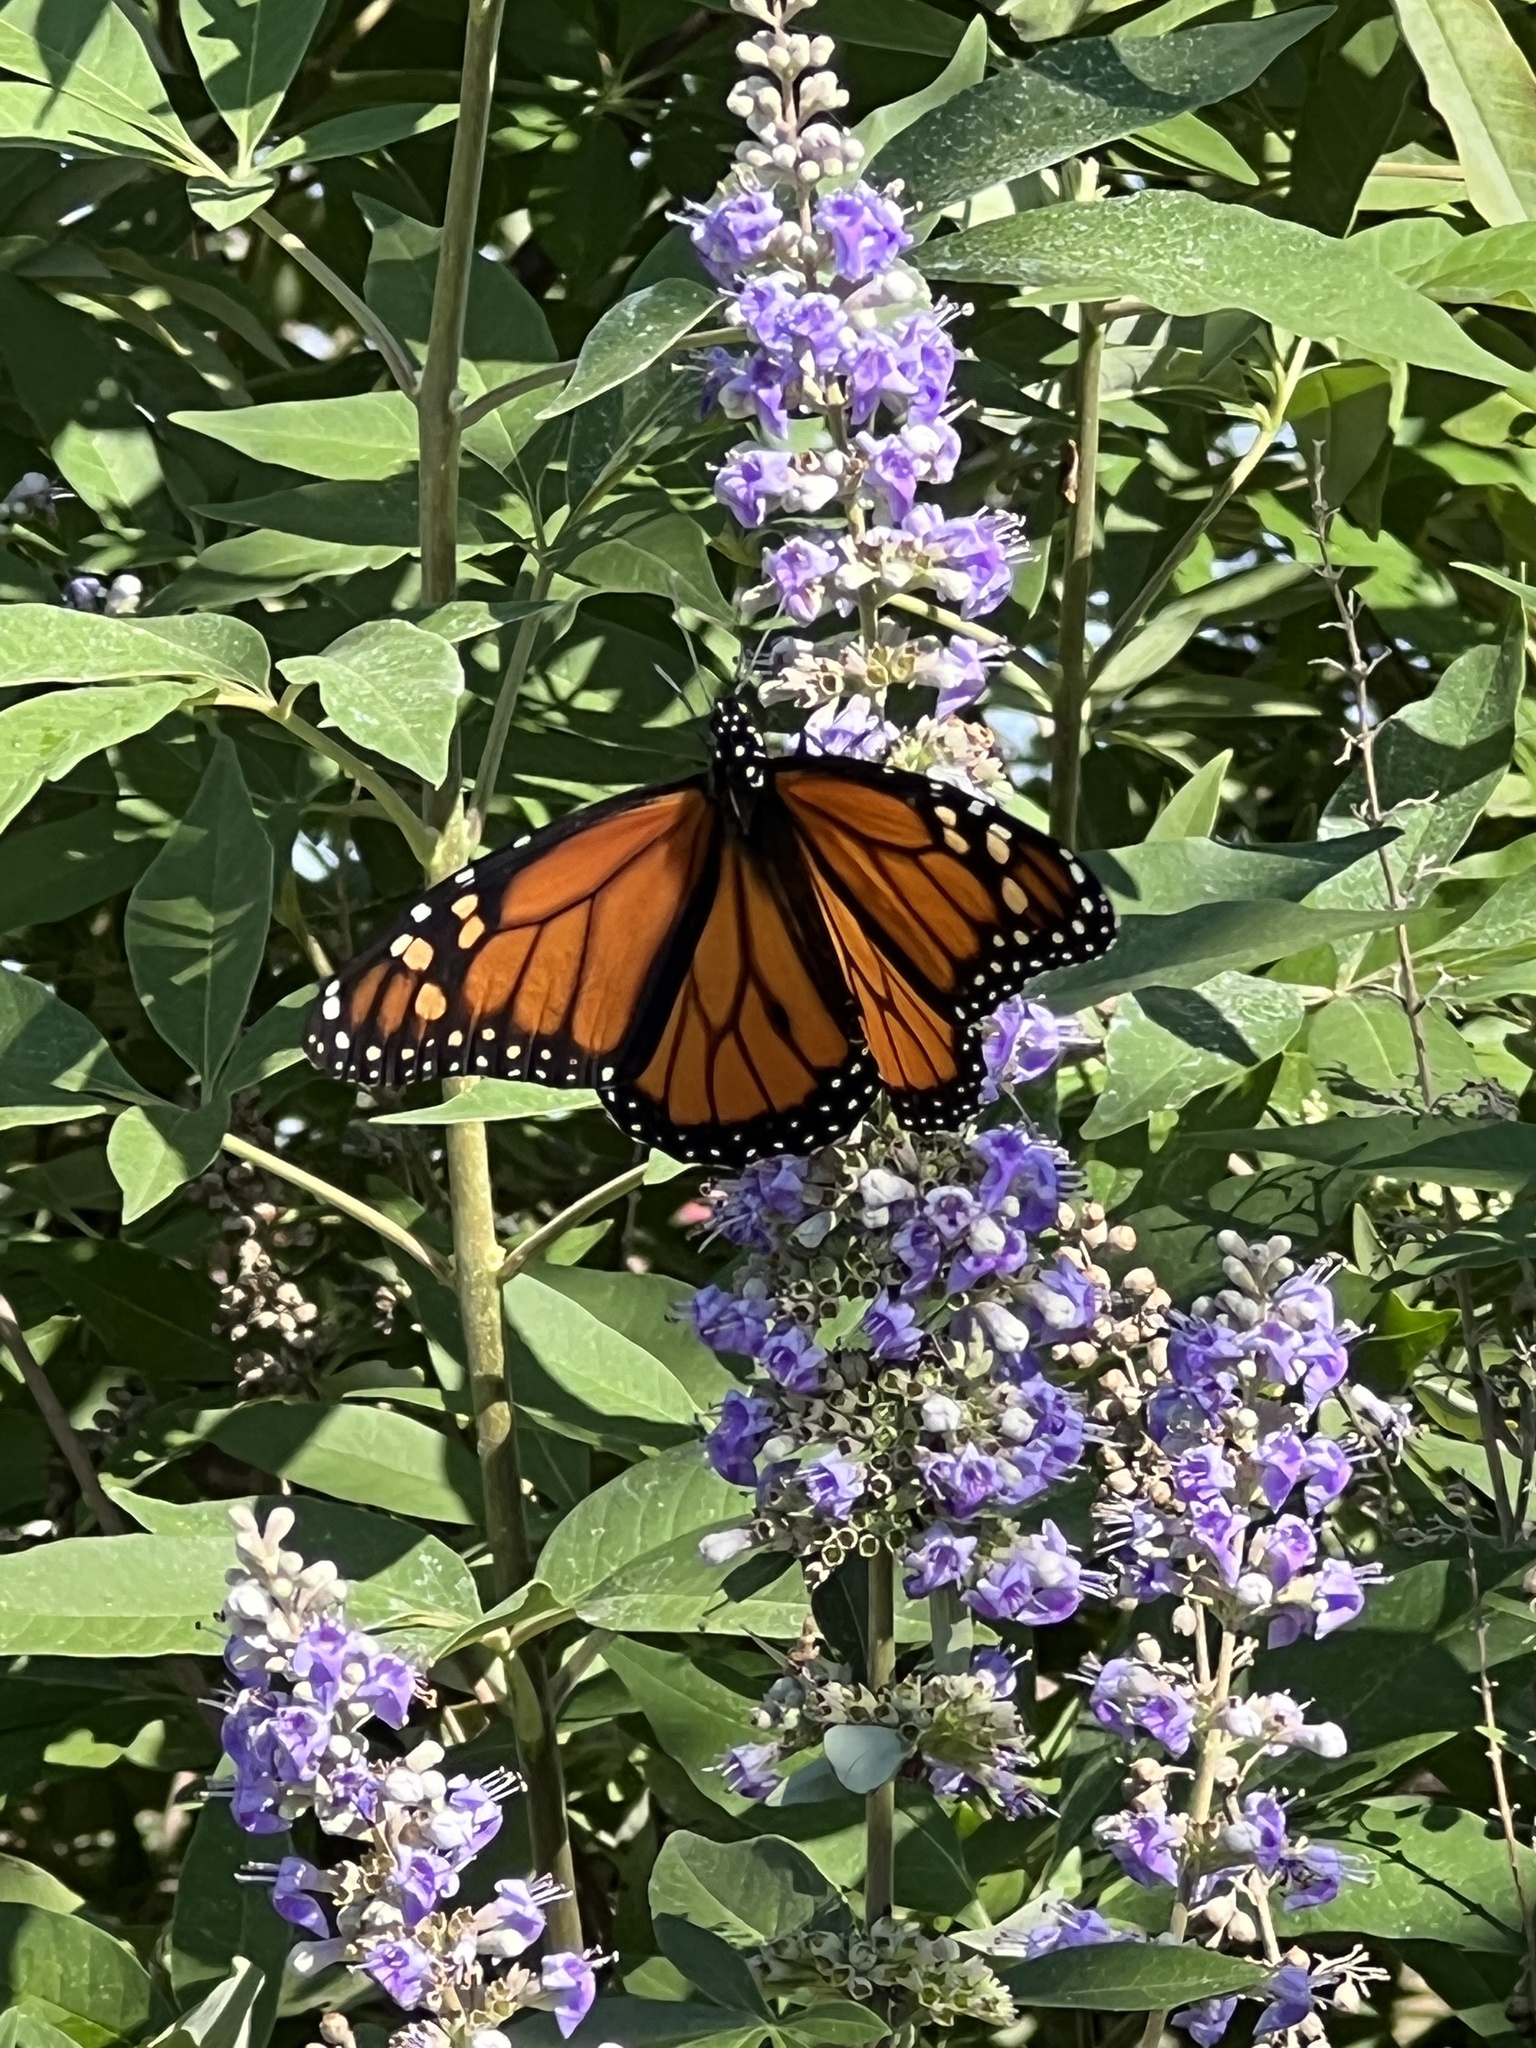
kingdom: Animalia
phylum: Arthropoda
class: Insecta
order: Lepidoptera
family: Nymphalidae
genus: Danaus
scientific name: Danaus plexippus
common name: Monarch
